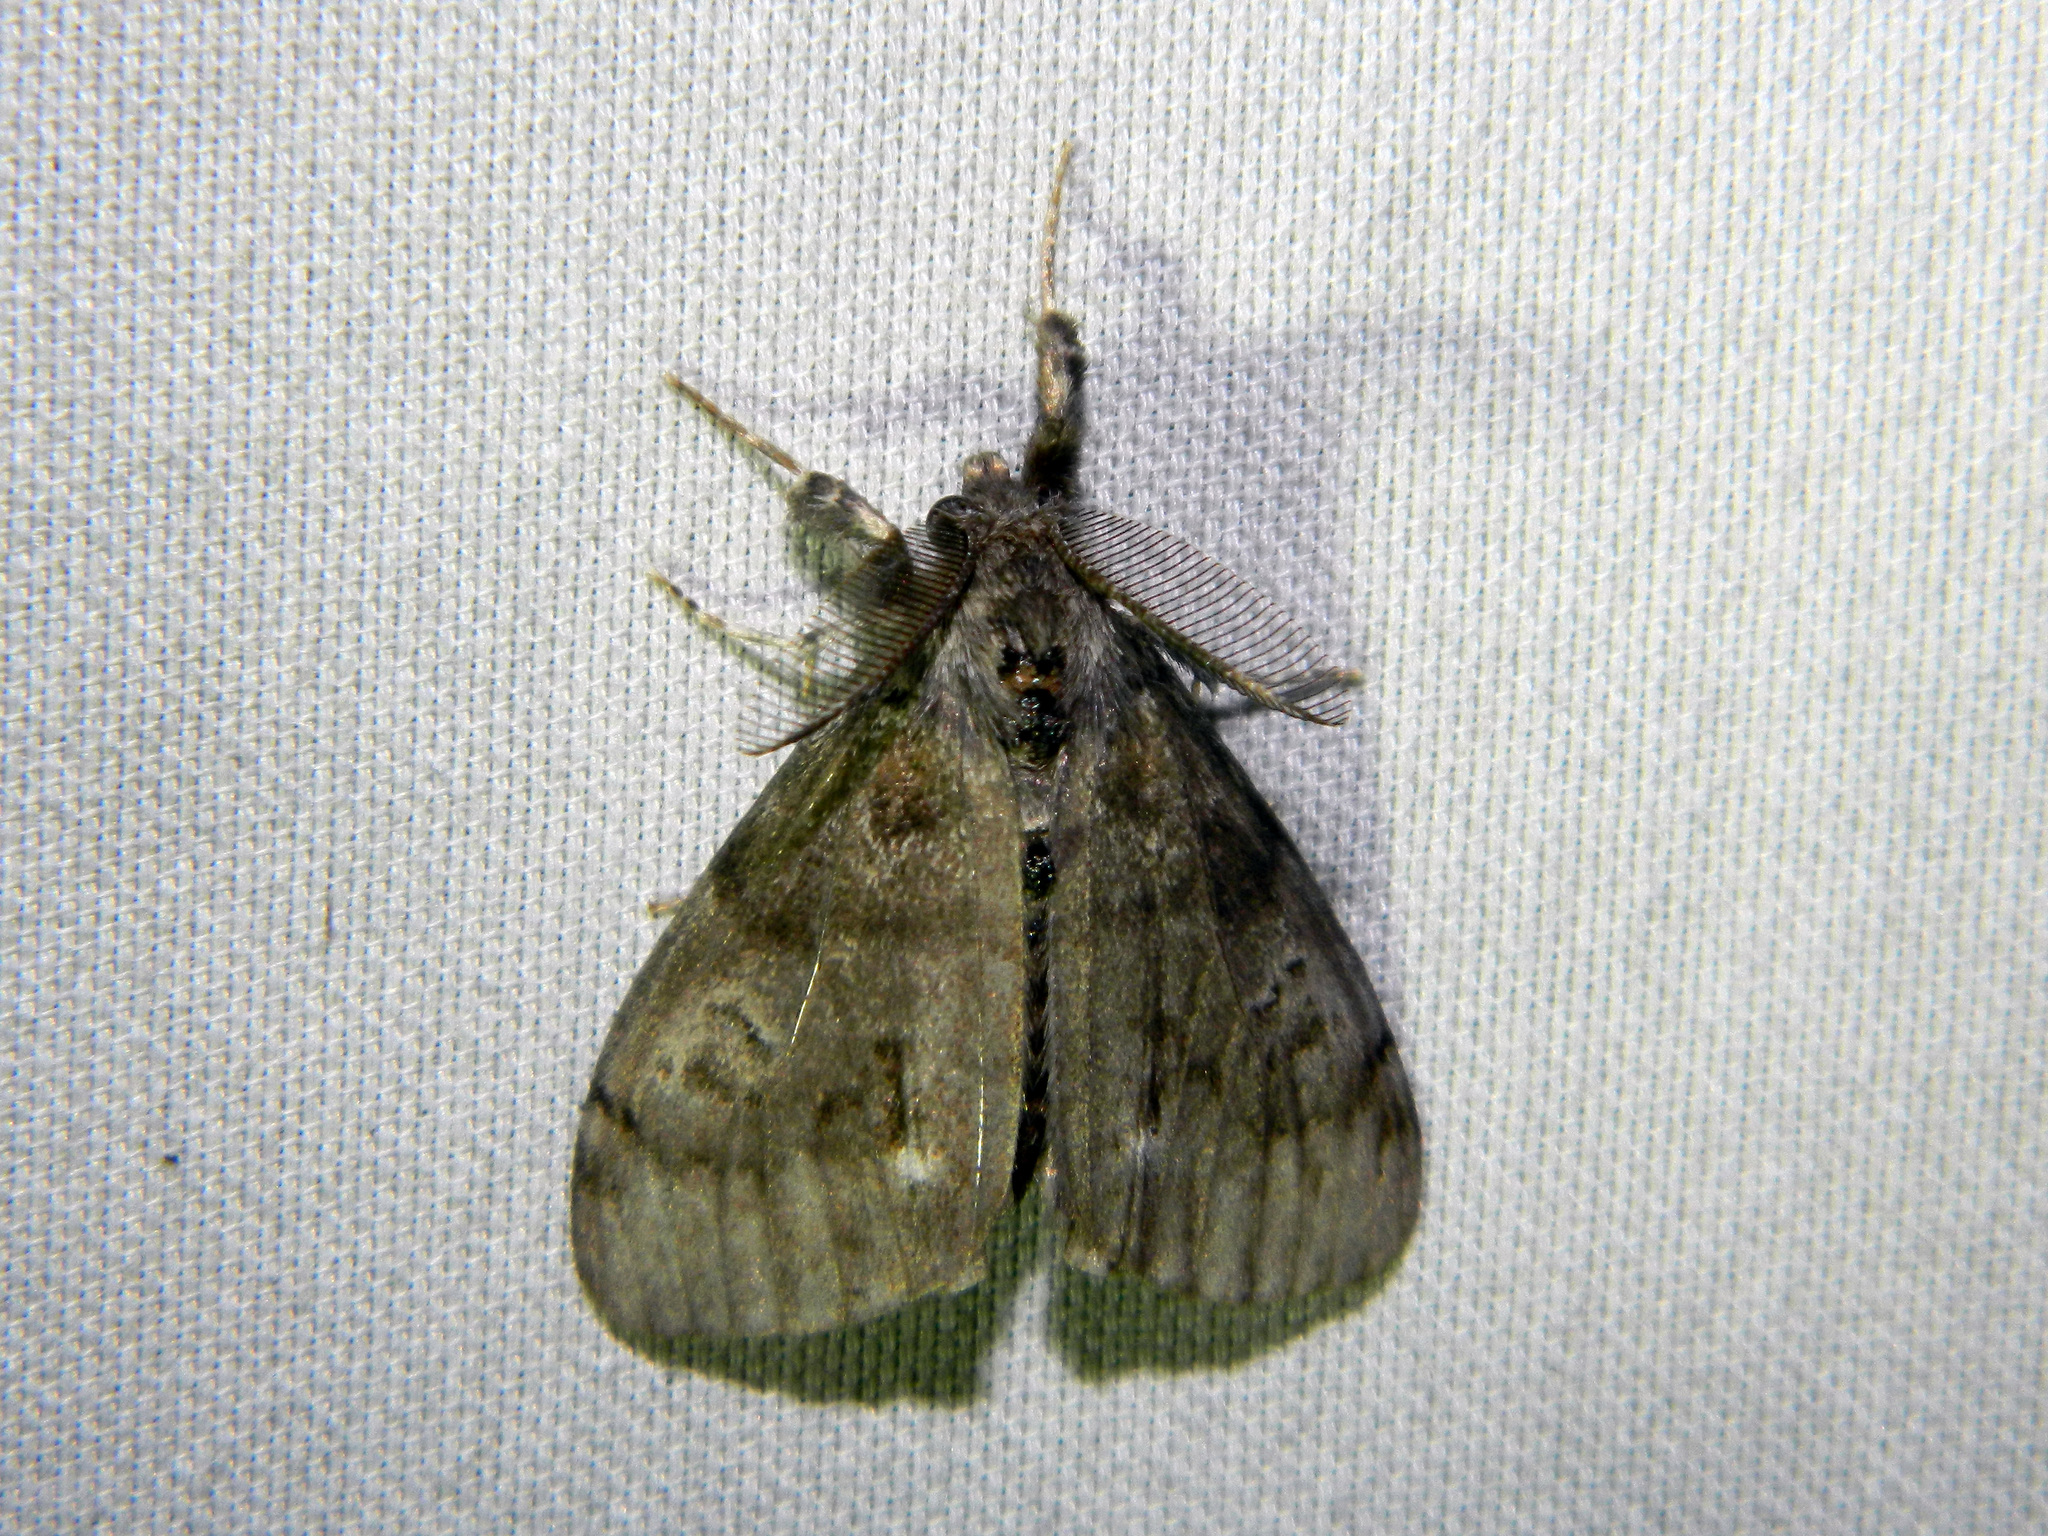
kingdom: Animalia
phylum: Arthropoda
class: Insecta
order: Lepidoptera
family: Erebidae
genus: Orgyia
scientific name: Orgyia leucostigma
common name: White-marked tussock moth
